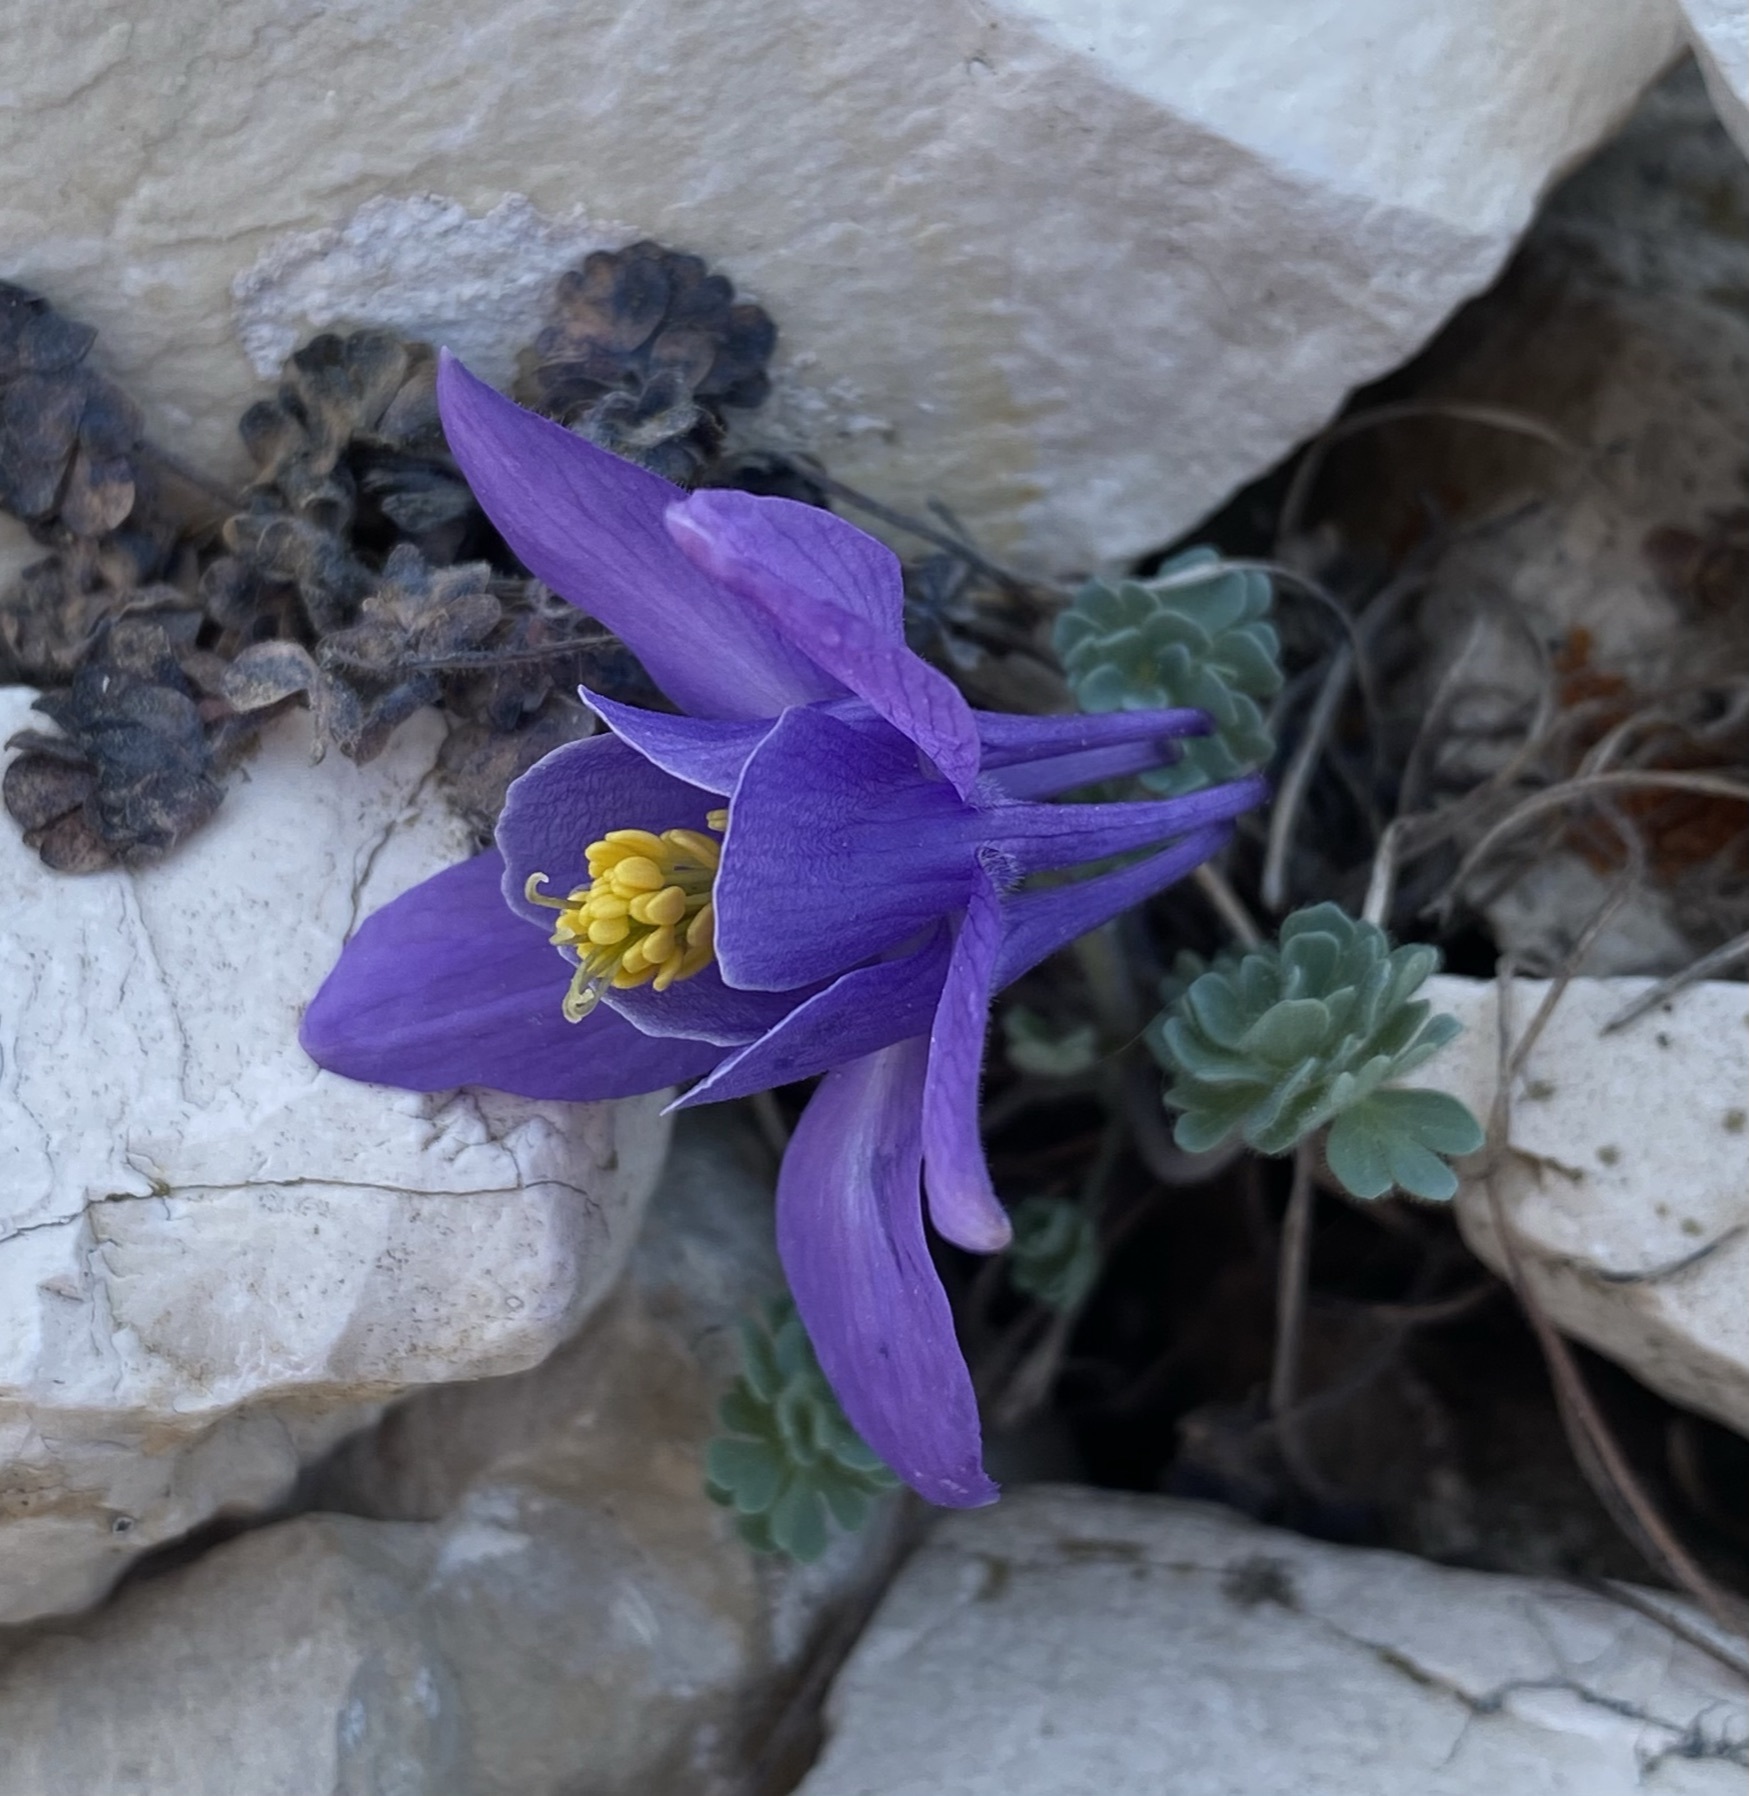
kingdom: Plantae
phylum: Tracheophyta
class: Magnoliopsida
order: Ranunculales
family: Ranunculaceae
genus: Aquilegia
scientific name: Aquilegia jonesii
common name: Jones' columbine
